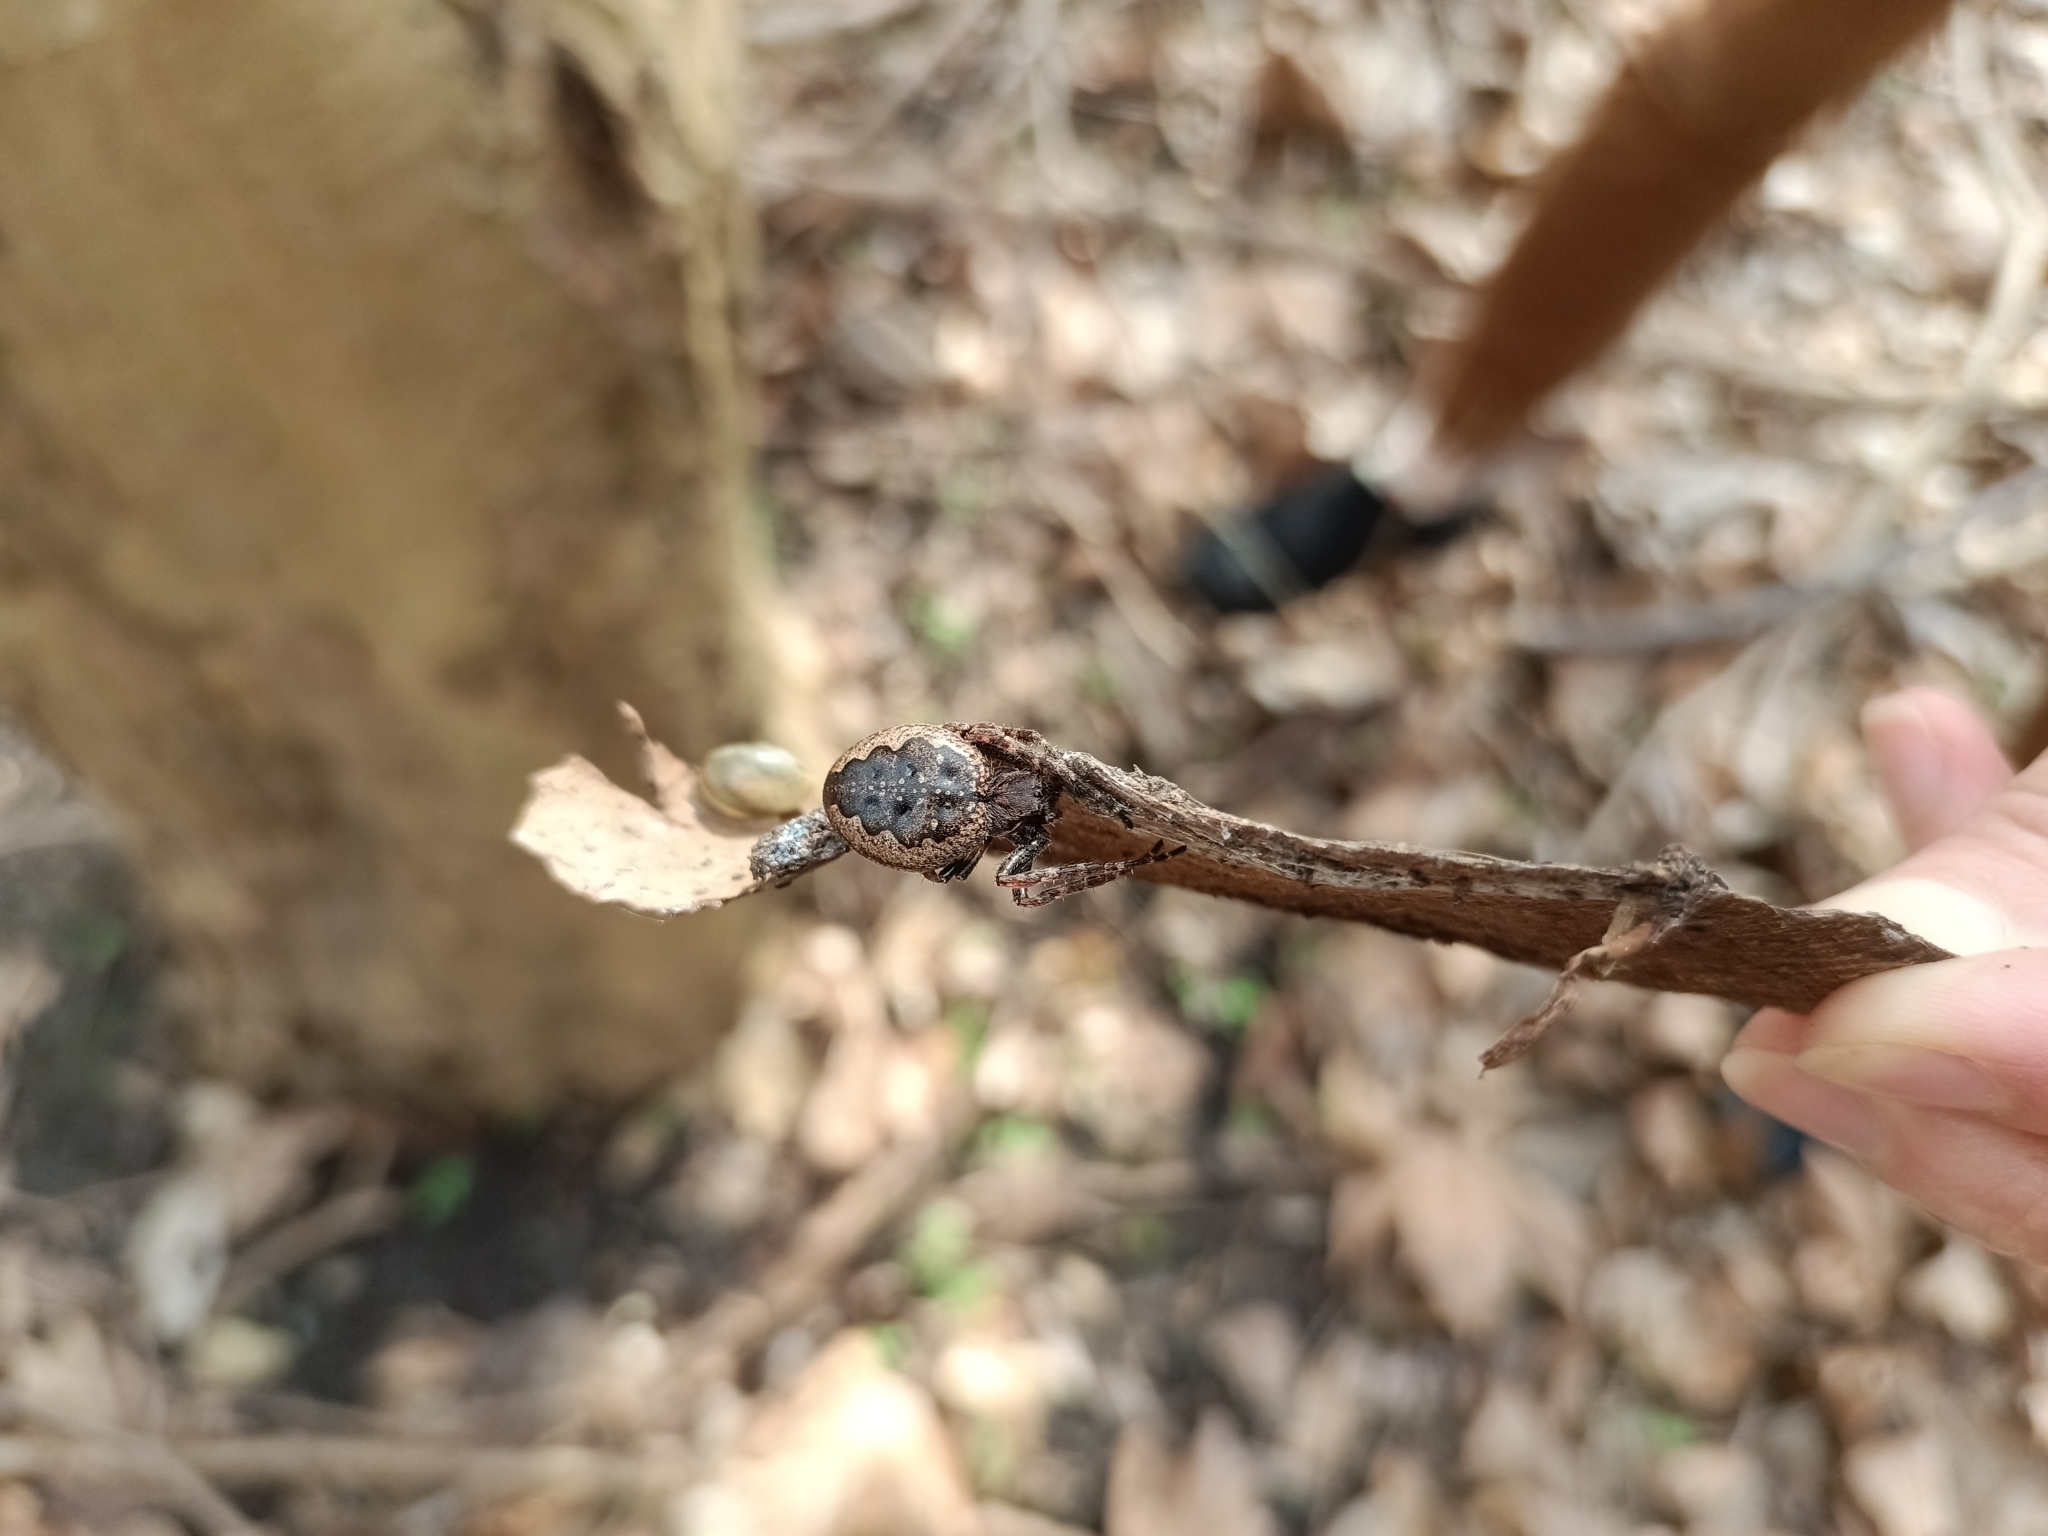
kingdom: Animalia
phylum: Arthropoda
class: Arachnida
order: Araneae
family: Araneidae
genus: Nuctenea
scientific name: Nuctenea umbratica
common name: Toad spider
